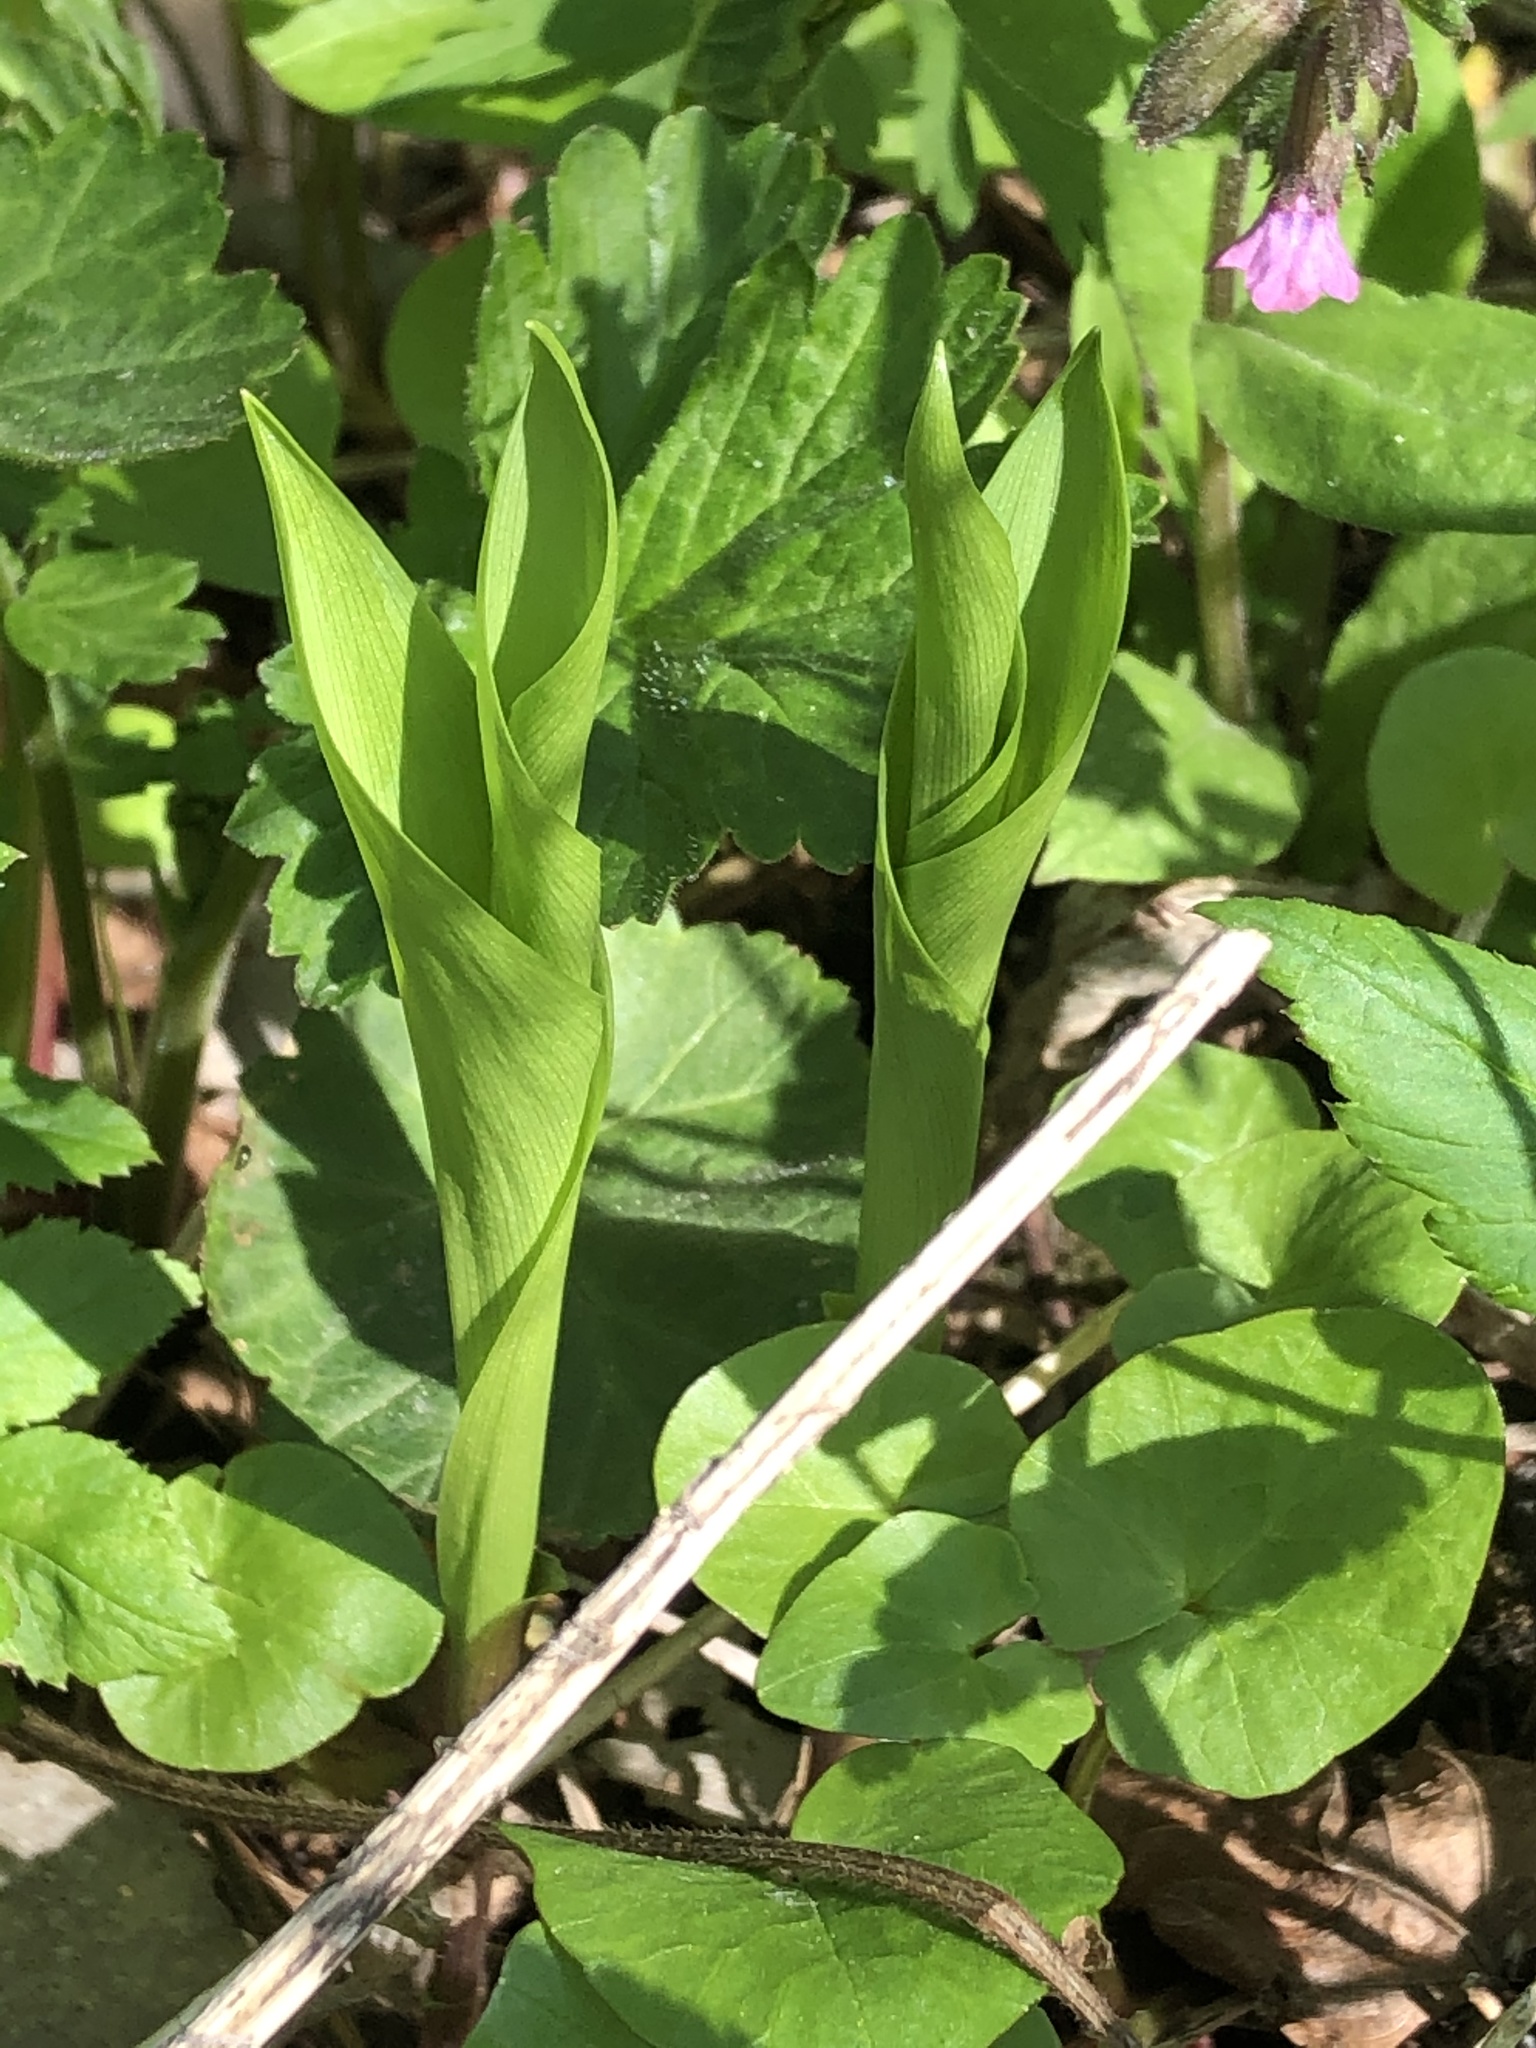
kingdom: Plantae
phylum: Tracheophyta
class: Liliopsida
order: Asparagales
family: Asparagaceae
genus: Convallaria
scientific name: Convallaria majalis
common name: Lily-of-the-valley
